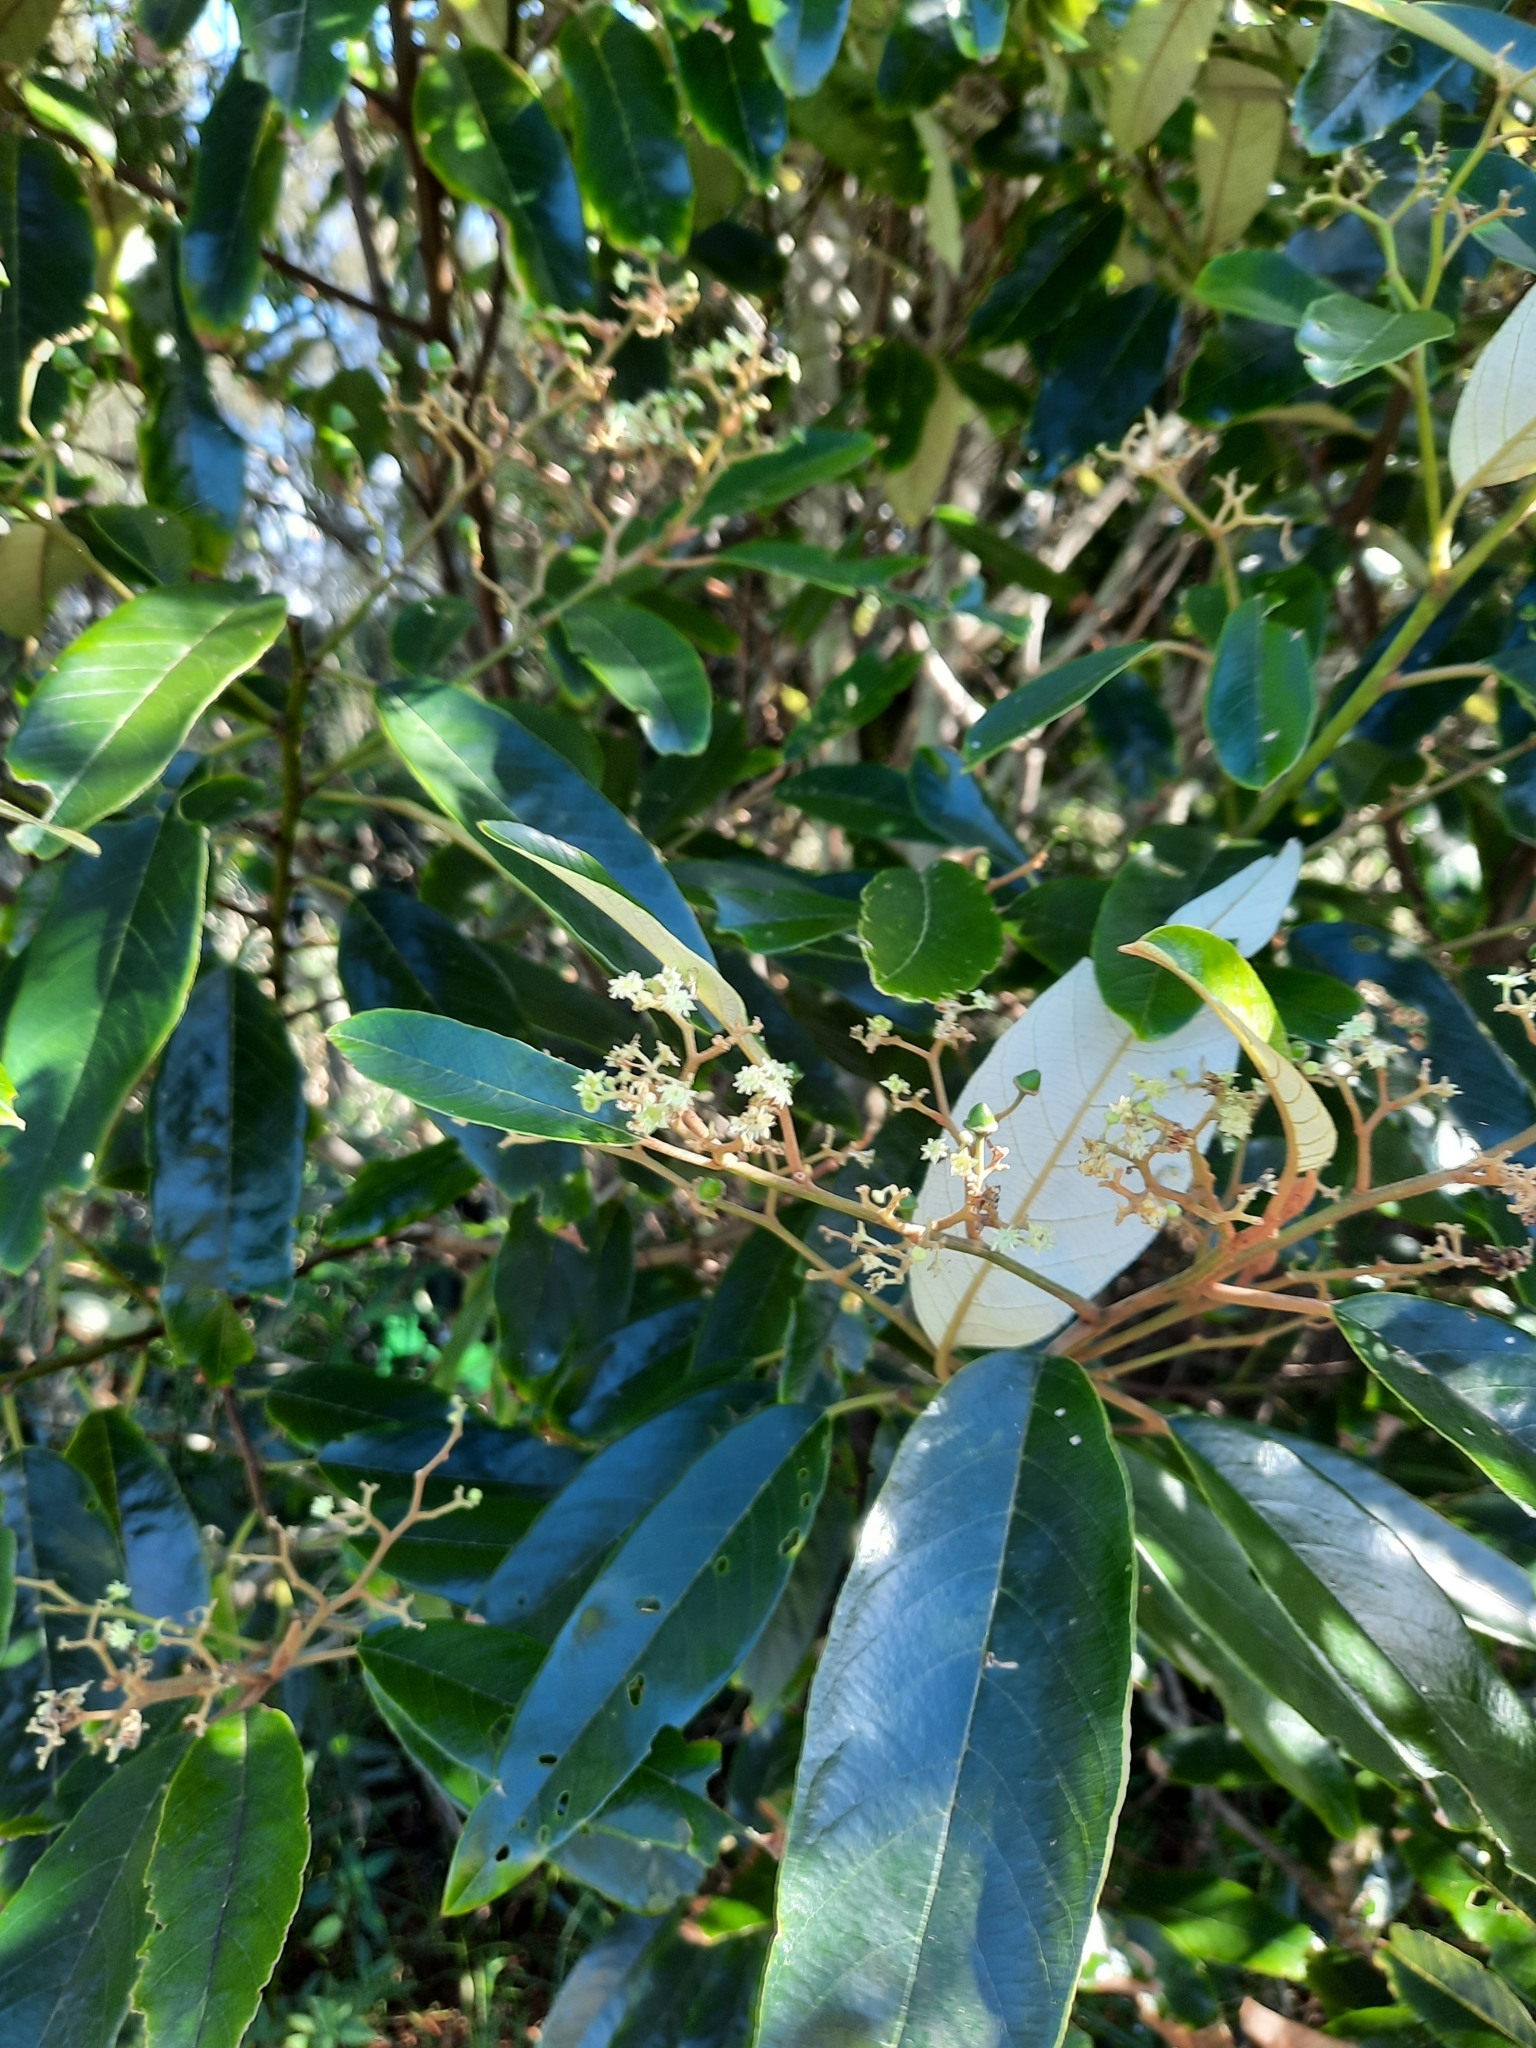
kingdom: Plantae
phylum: Tracheophyta
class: Magnoliopsida
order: Rosales
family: Rhamnaceae
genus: Alphitonia
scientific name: Alphitonia excelsa
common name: Red ash
